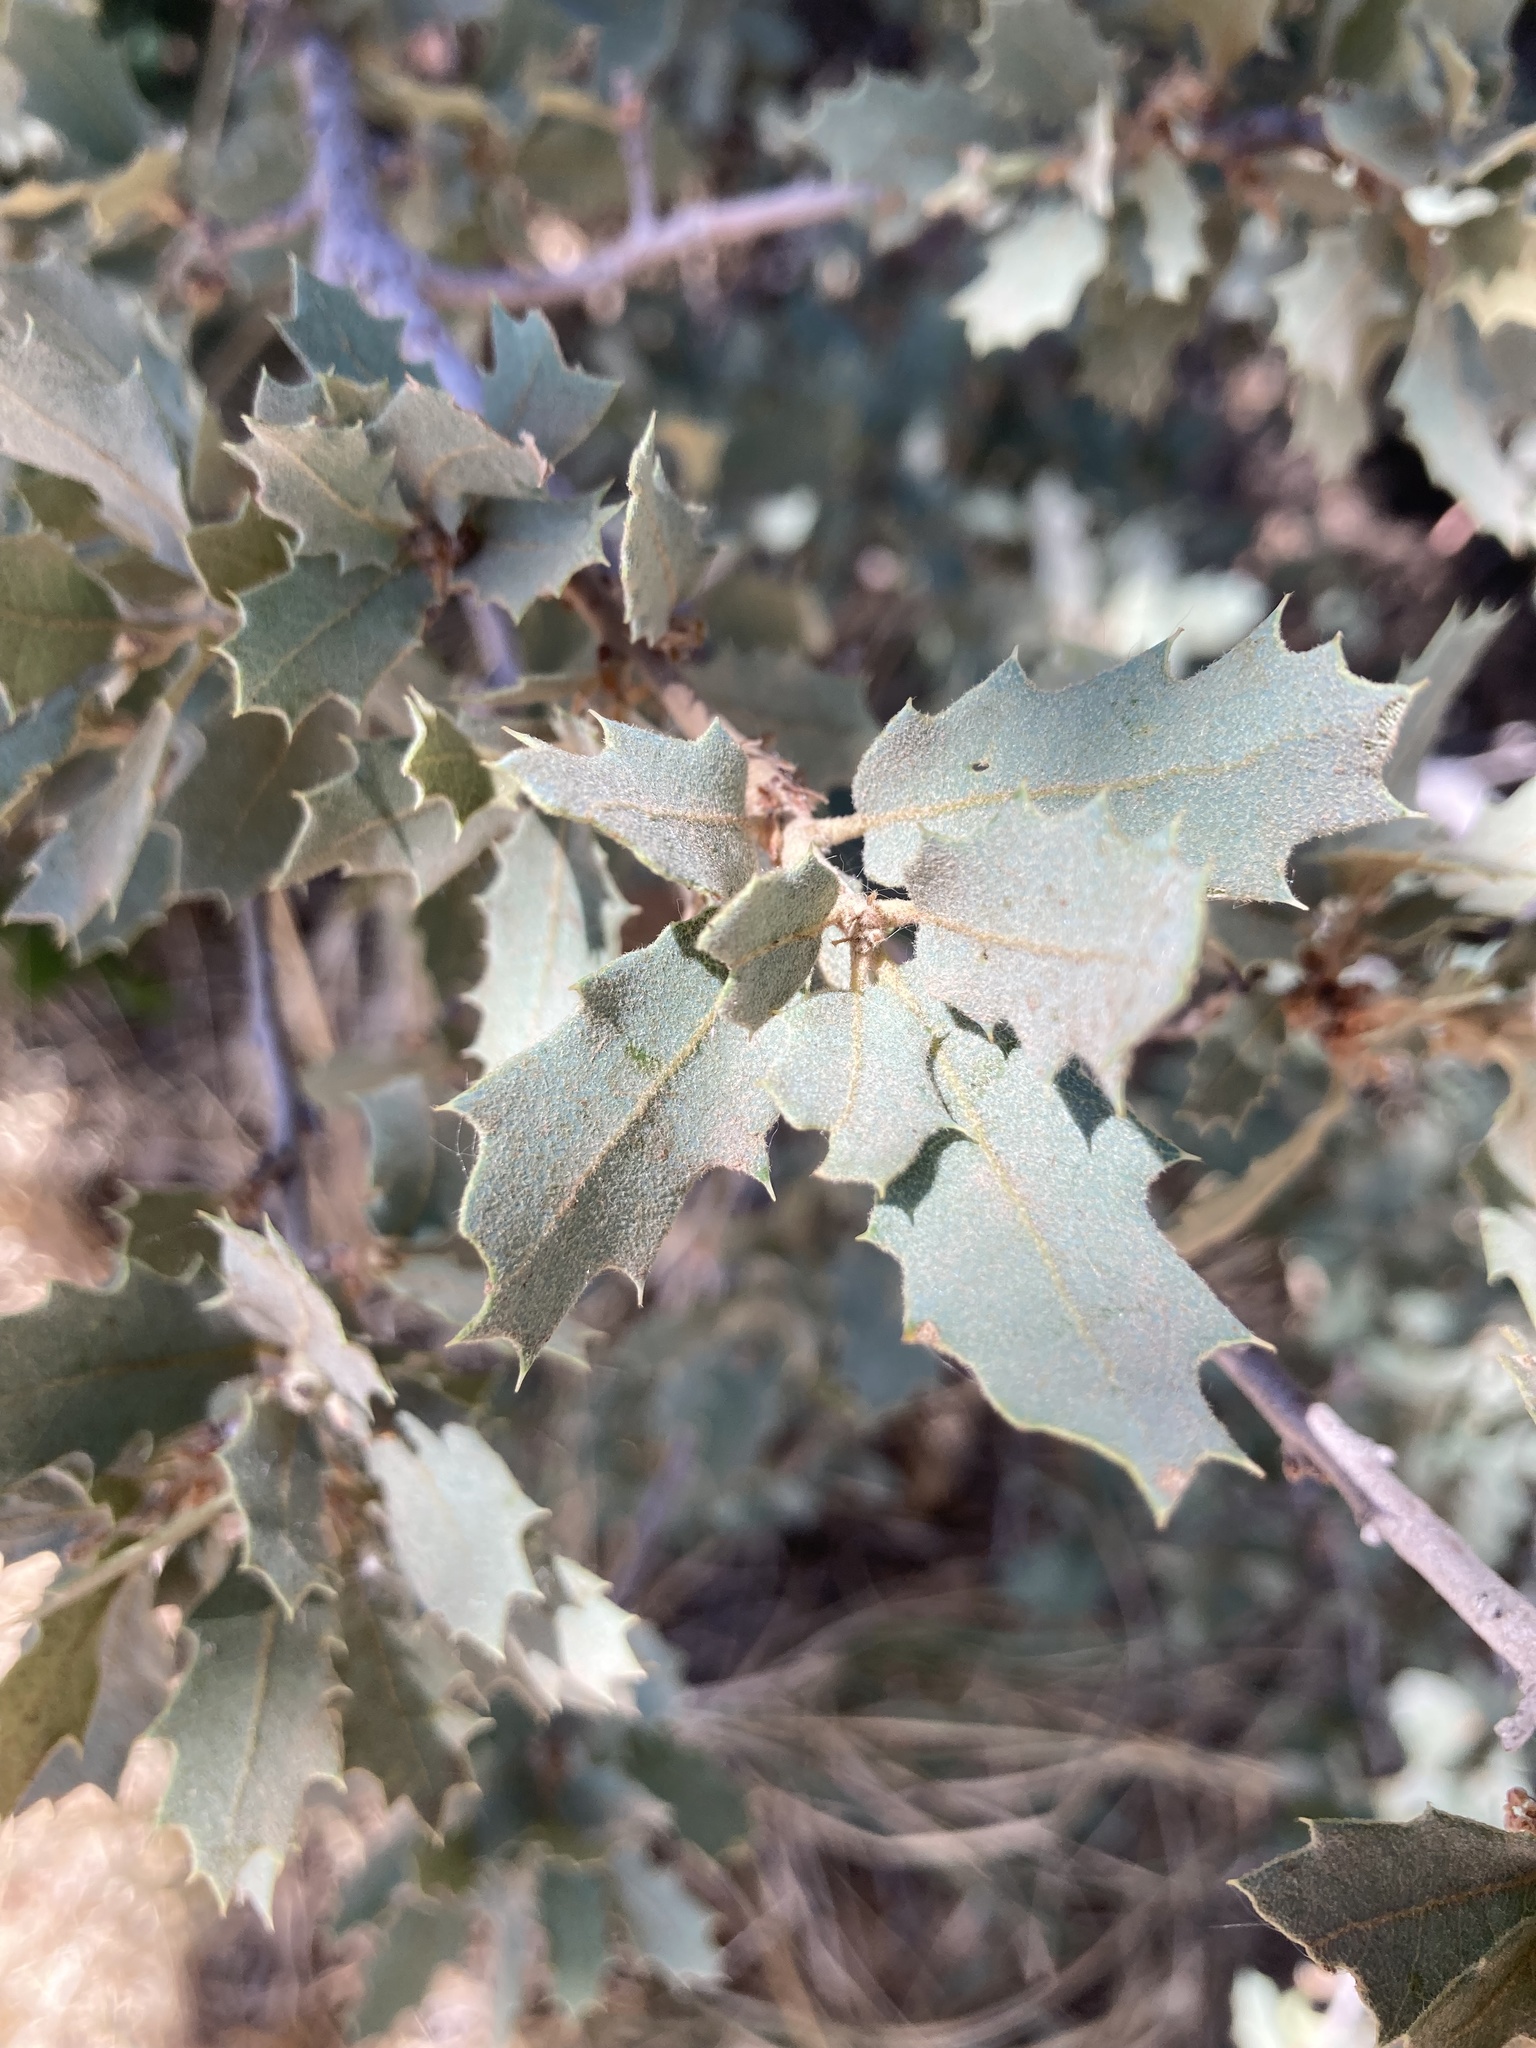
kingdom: Plantae
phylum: Tracheophyta
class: Magnoliopsida
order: Fagales
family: Fagaceae
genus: Quercus
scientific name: Quercus turbinella
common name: Sonoran scrub oak
